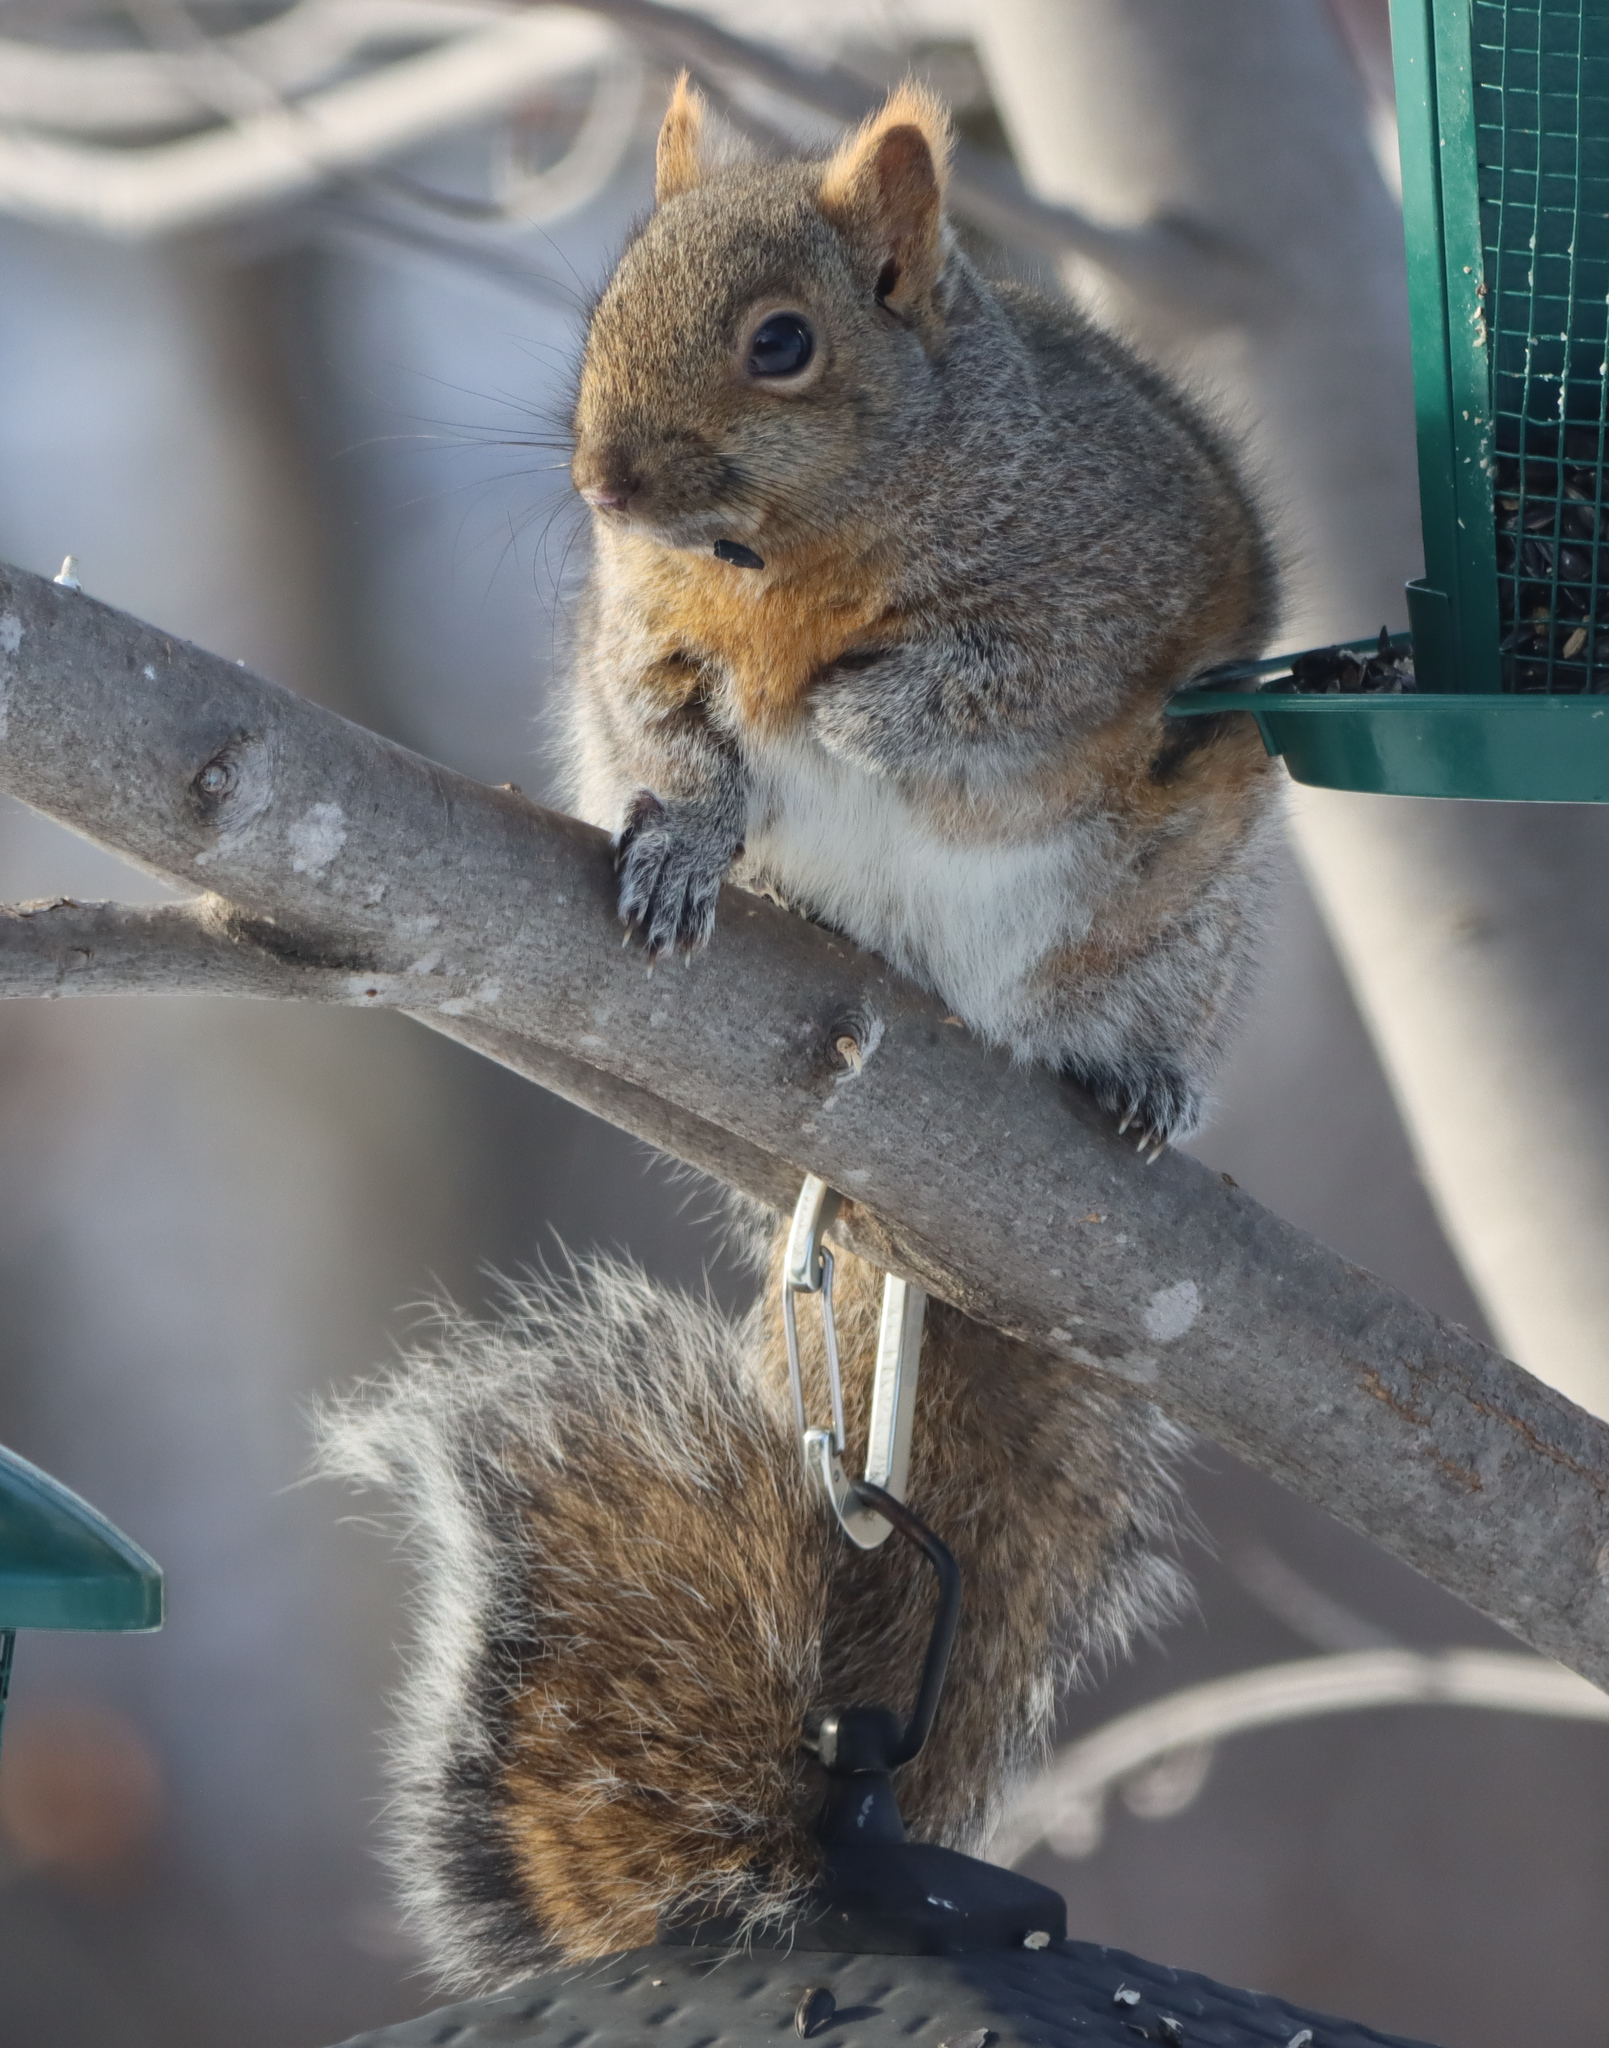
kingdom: Animalia
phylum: Chordata
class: Mammalia
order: Rodentia
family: Sciuridae
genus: Sciurus
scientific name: Sciurus carolinensis
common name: Eastern gray squirrel
